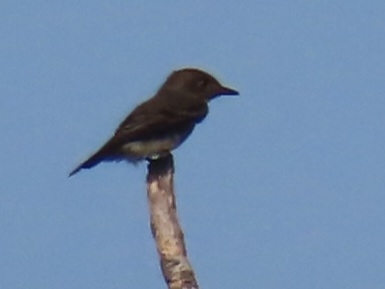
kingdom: Animalia
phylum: Chordata
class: Aves
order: Passeriformes
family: Tyrannidae
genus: Sayornis
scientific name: Sayornis nigricans
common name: Black phoebe
